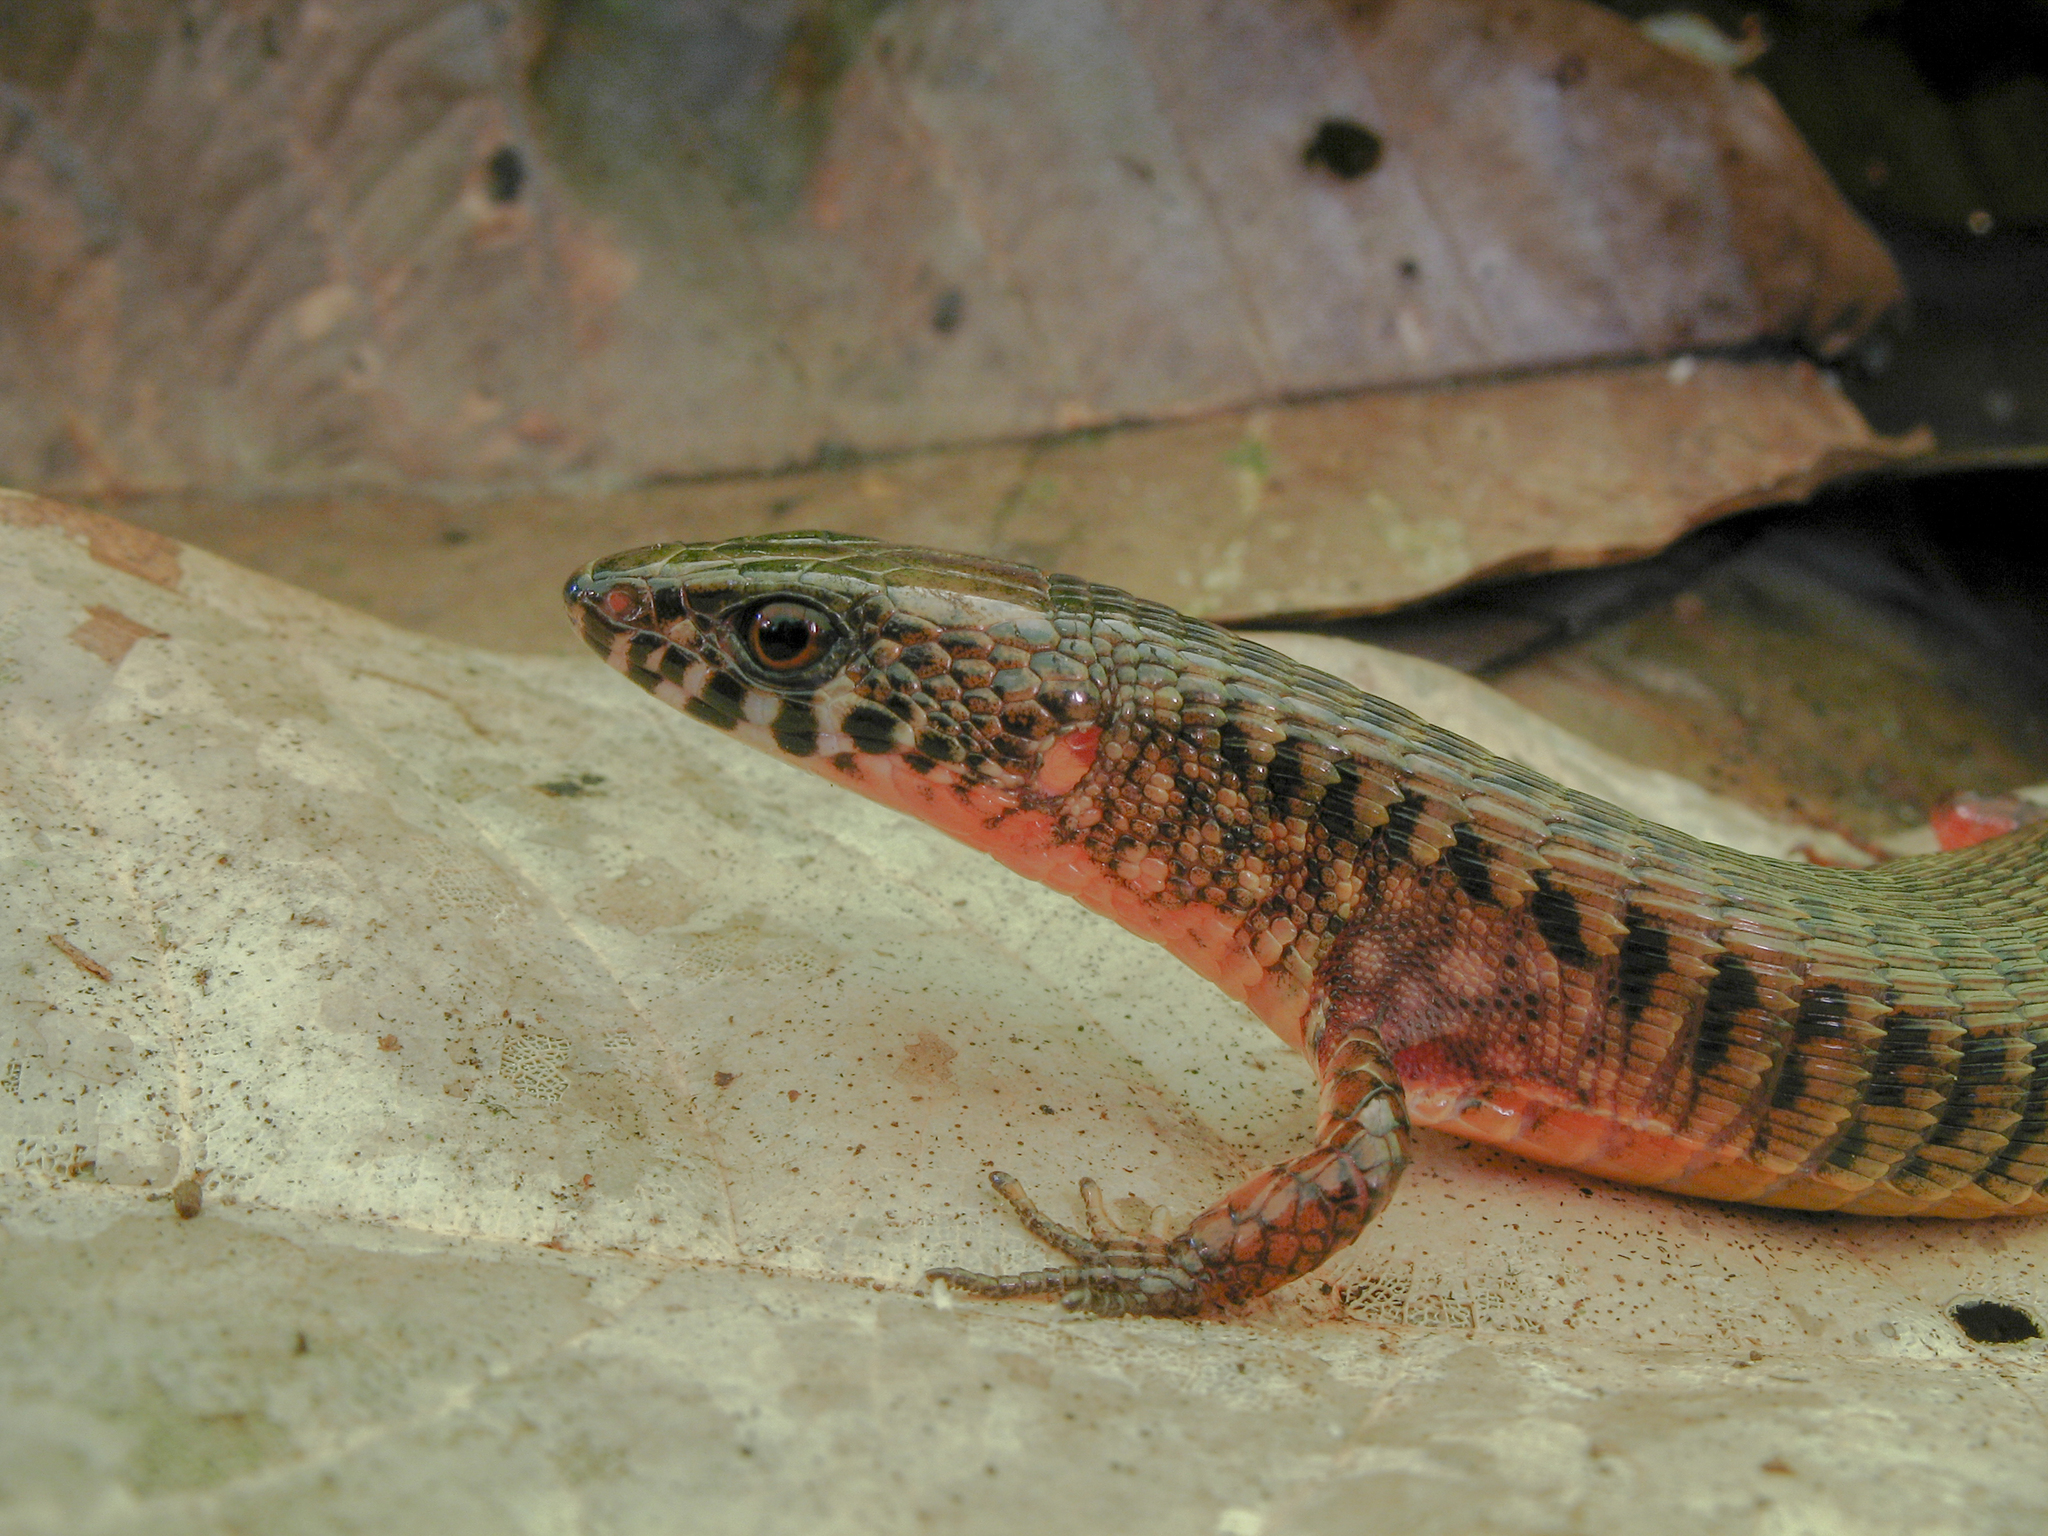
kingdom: Animalia
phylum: Chordata
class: Squamata
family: Gymnophthalmidae
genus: Arthrosaura
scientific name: Arthrosaura reticulata
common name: Yellowbelly arthrosaura
